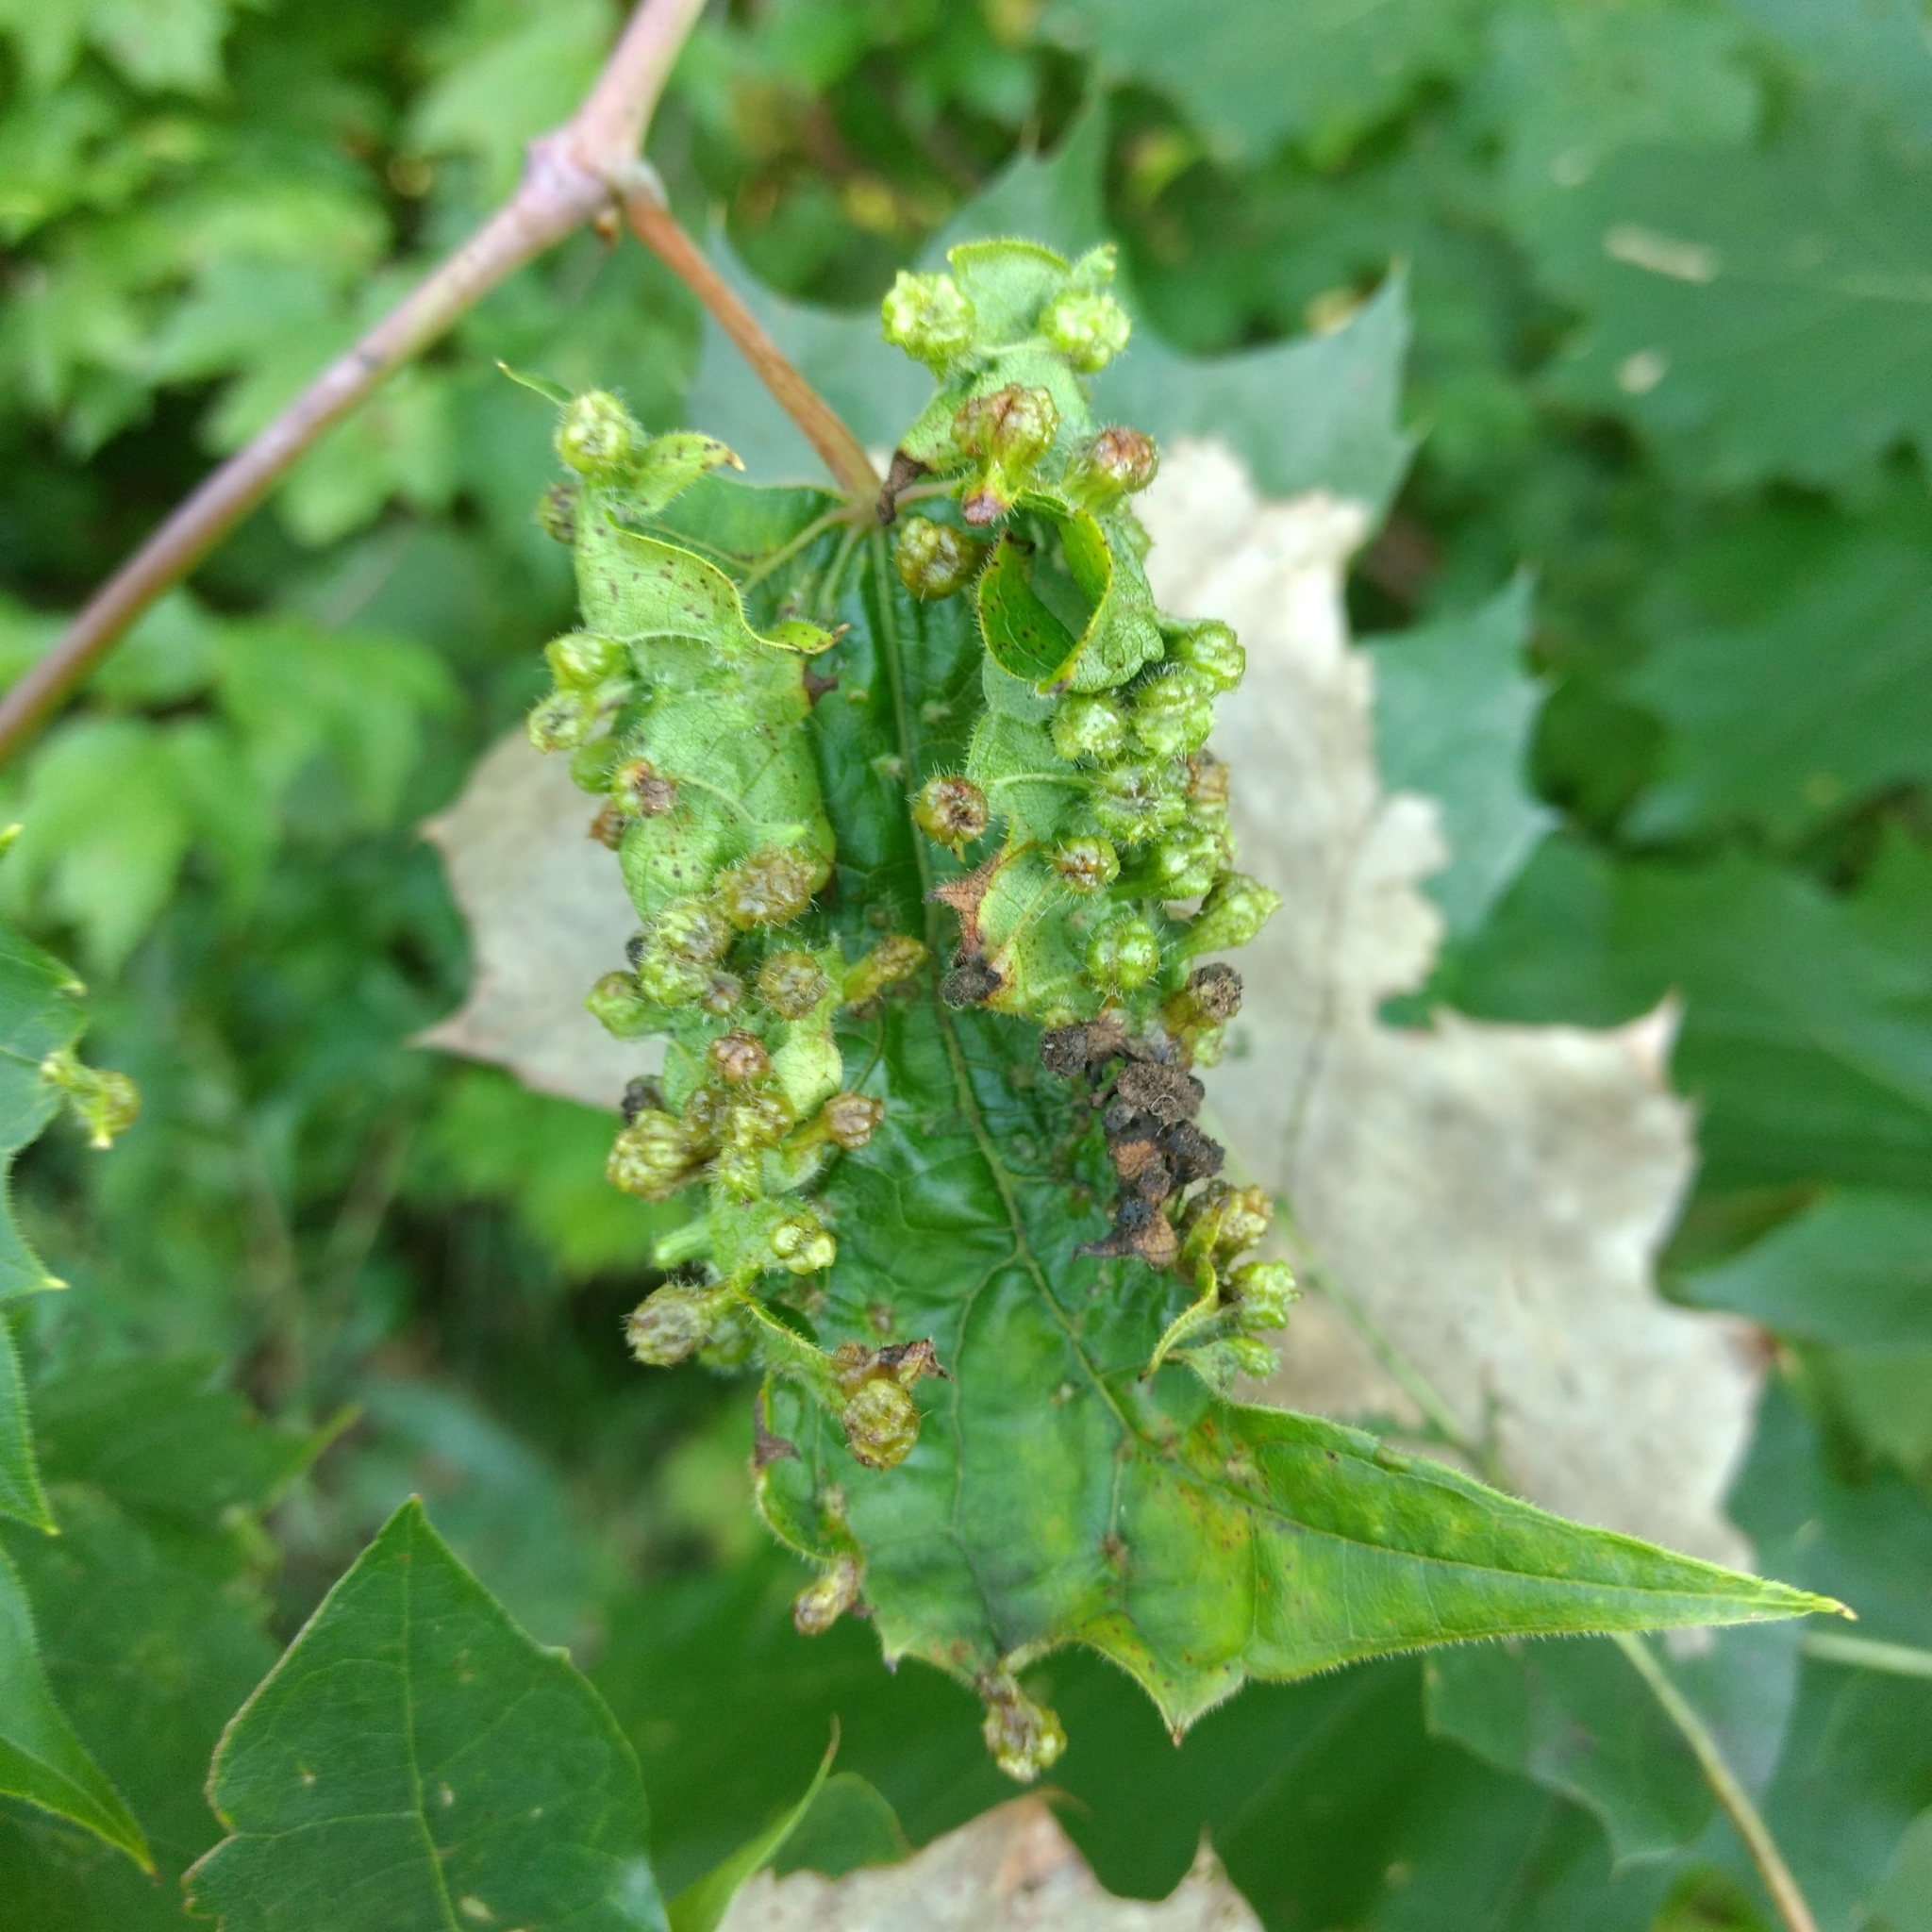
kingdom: Animalia
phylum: Arthropoda
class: Insecta
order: Hemiptera
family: Phylloxeridae
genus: Daktulosphaira
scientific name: Daktulosphaira vitifoliae
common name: Grape phylloxera
